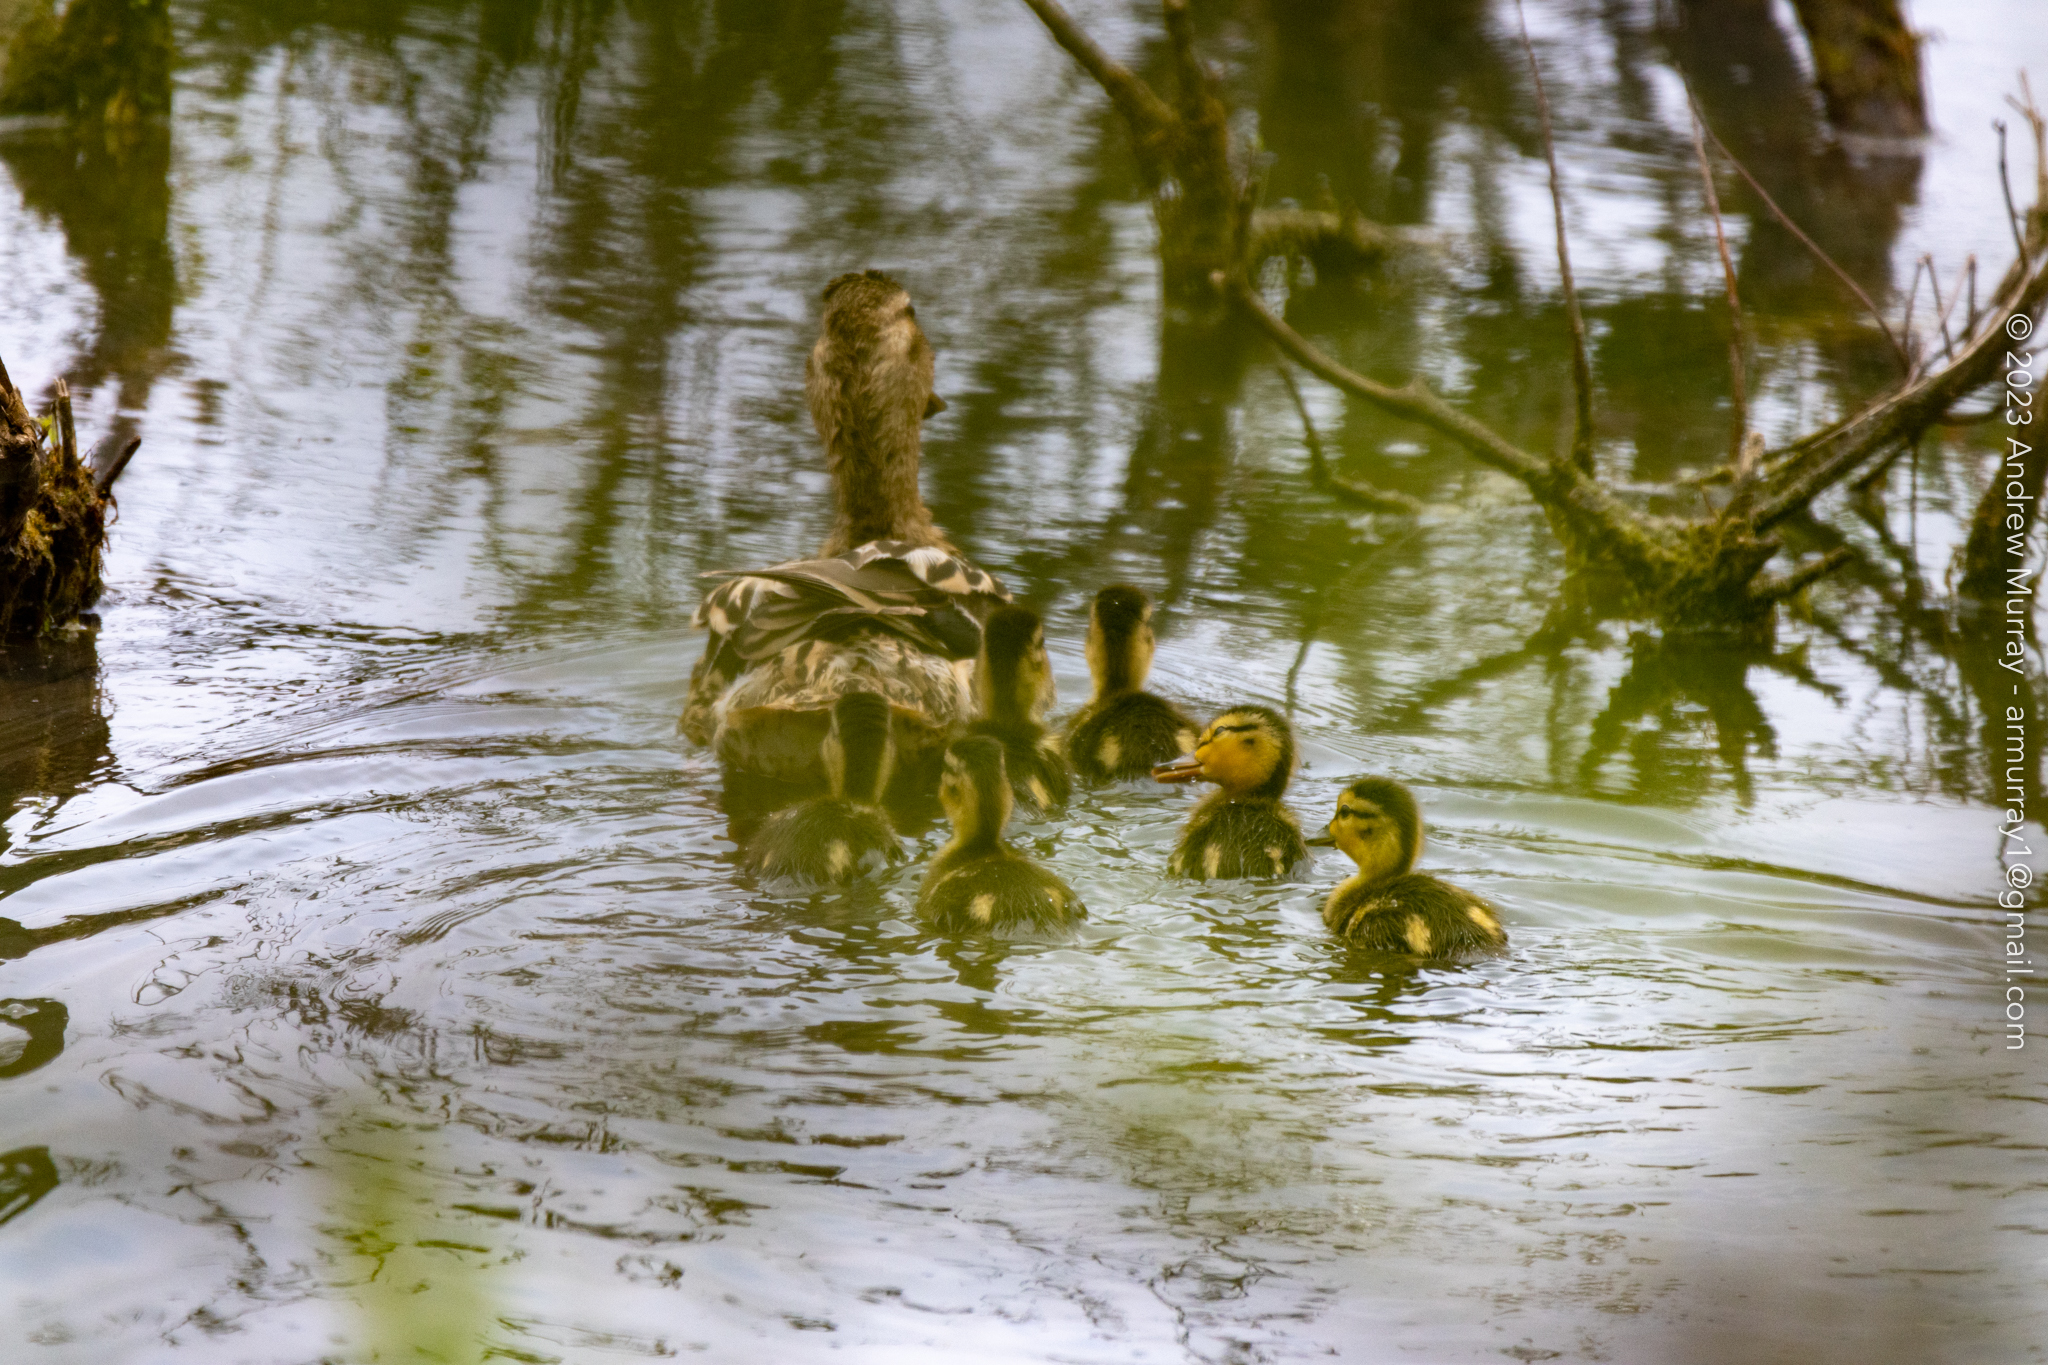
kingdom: Animalia
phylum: Chordata
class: Aves
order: Anseriformes
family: Anatidae
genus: Anas
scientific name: Anas platyrhynchos
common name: Mallard
